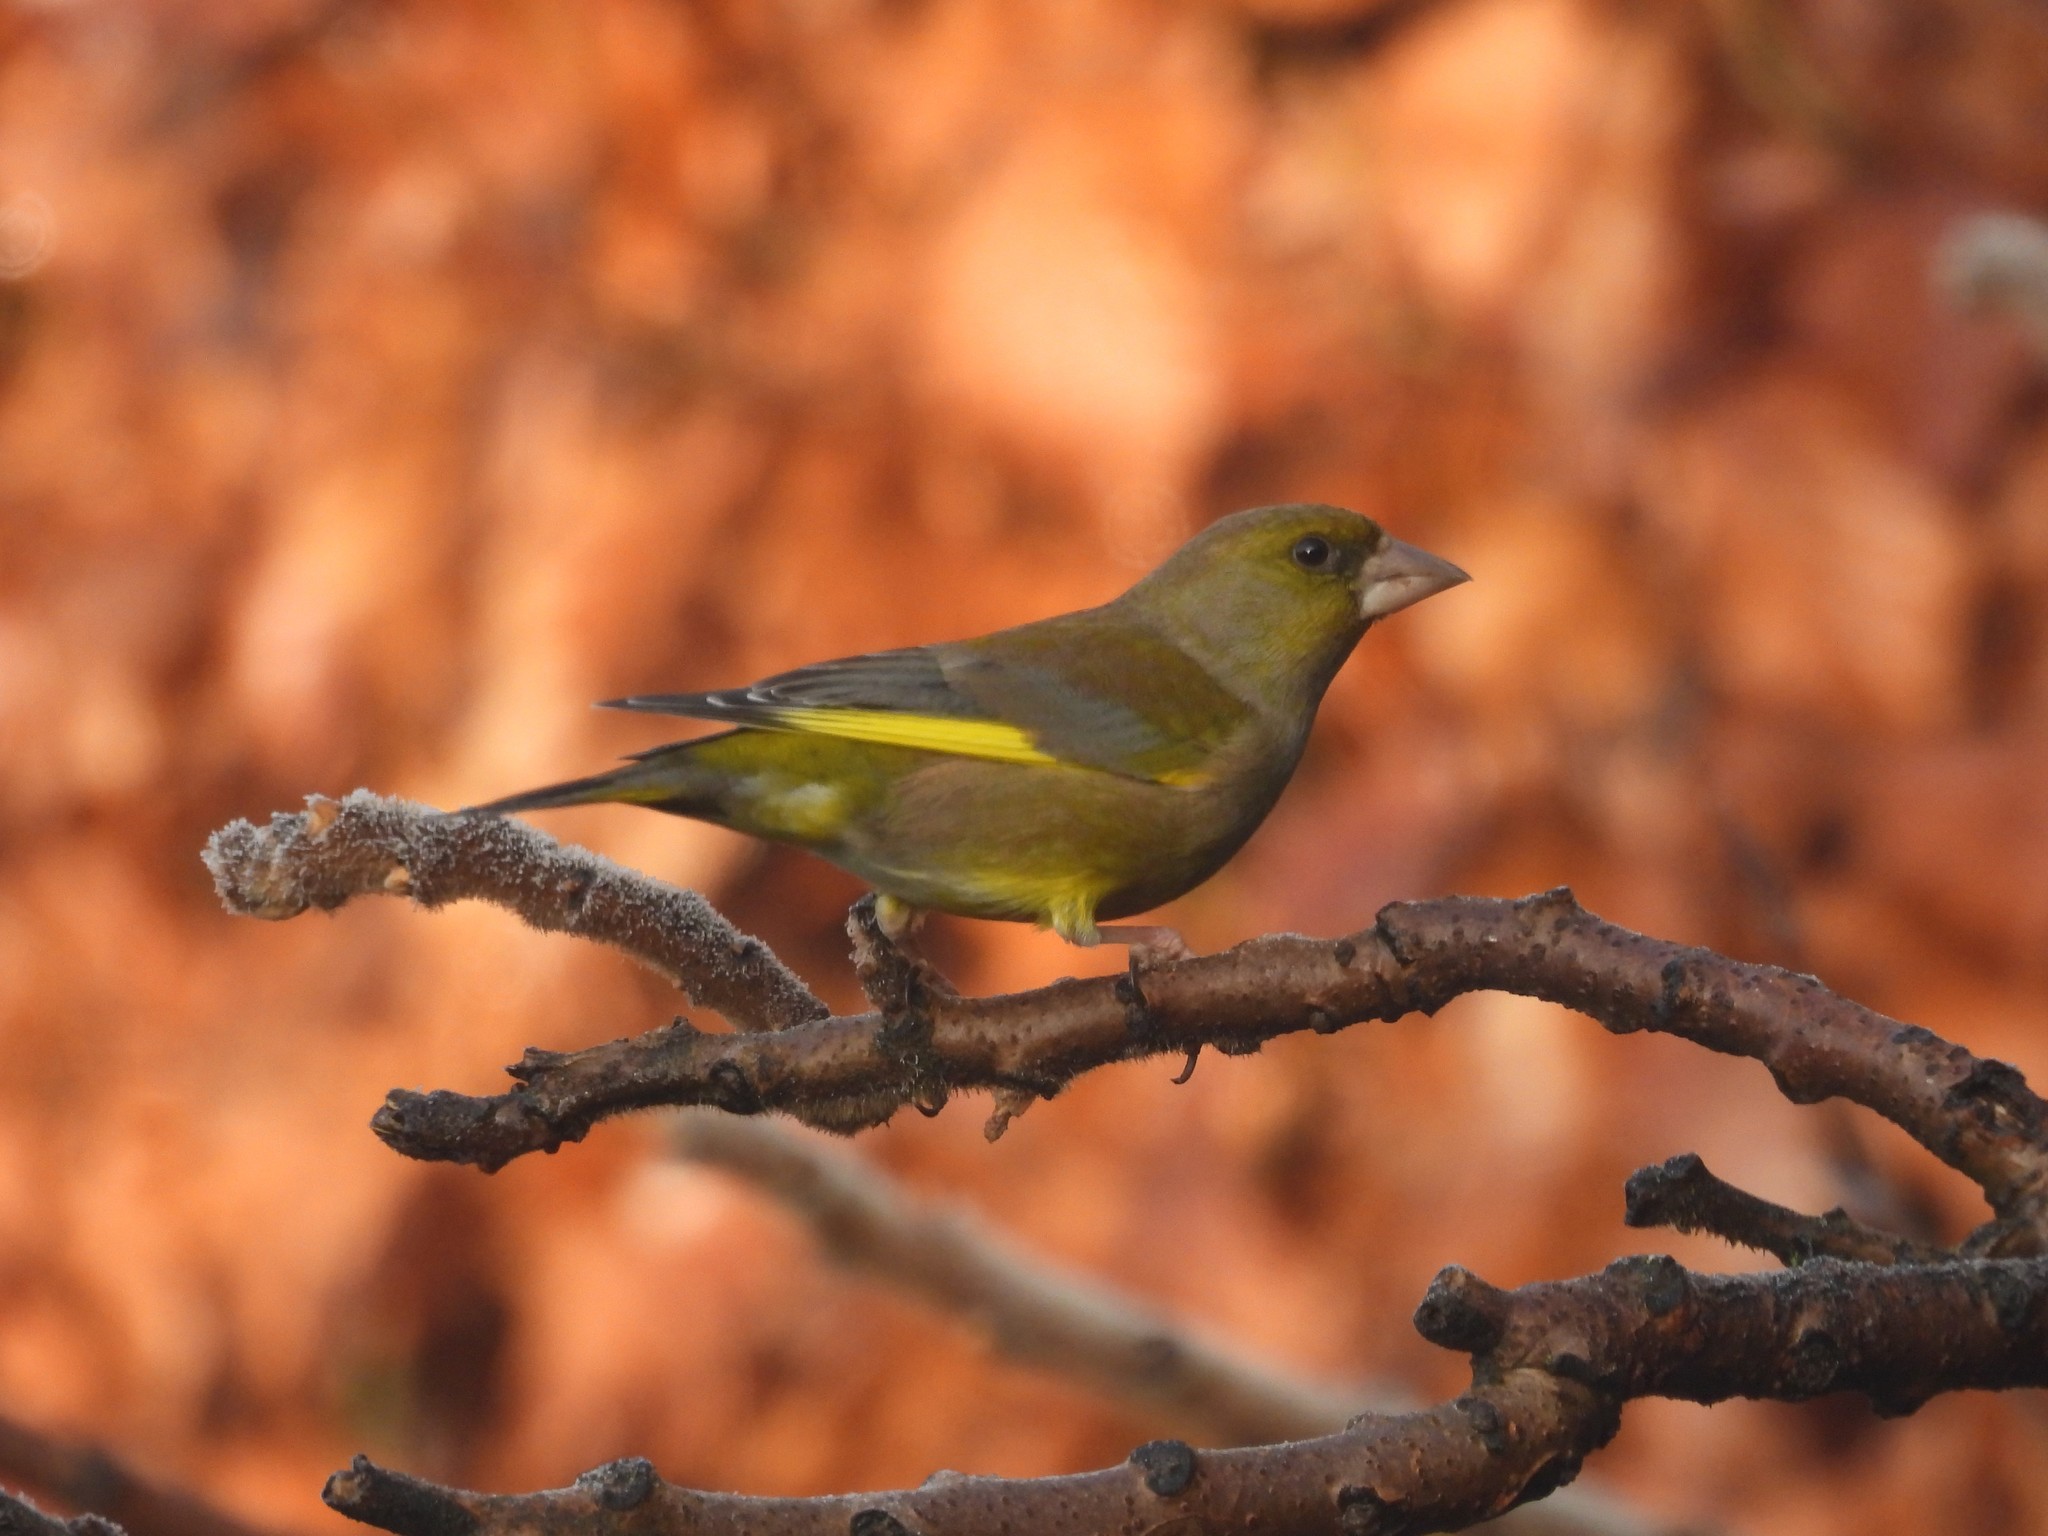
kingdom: Plantae
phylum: Tracheophyta
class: Liliopsida
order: Poales
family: Poaceae
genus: Chloris
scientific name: Chloris chloris
